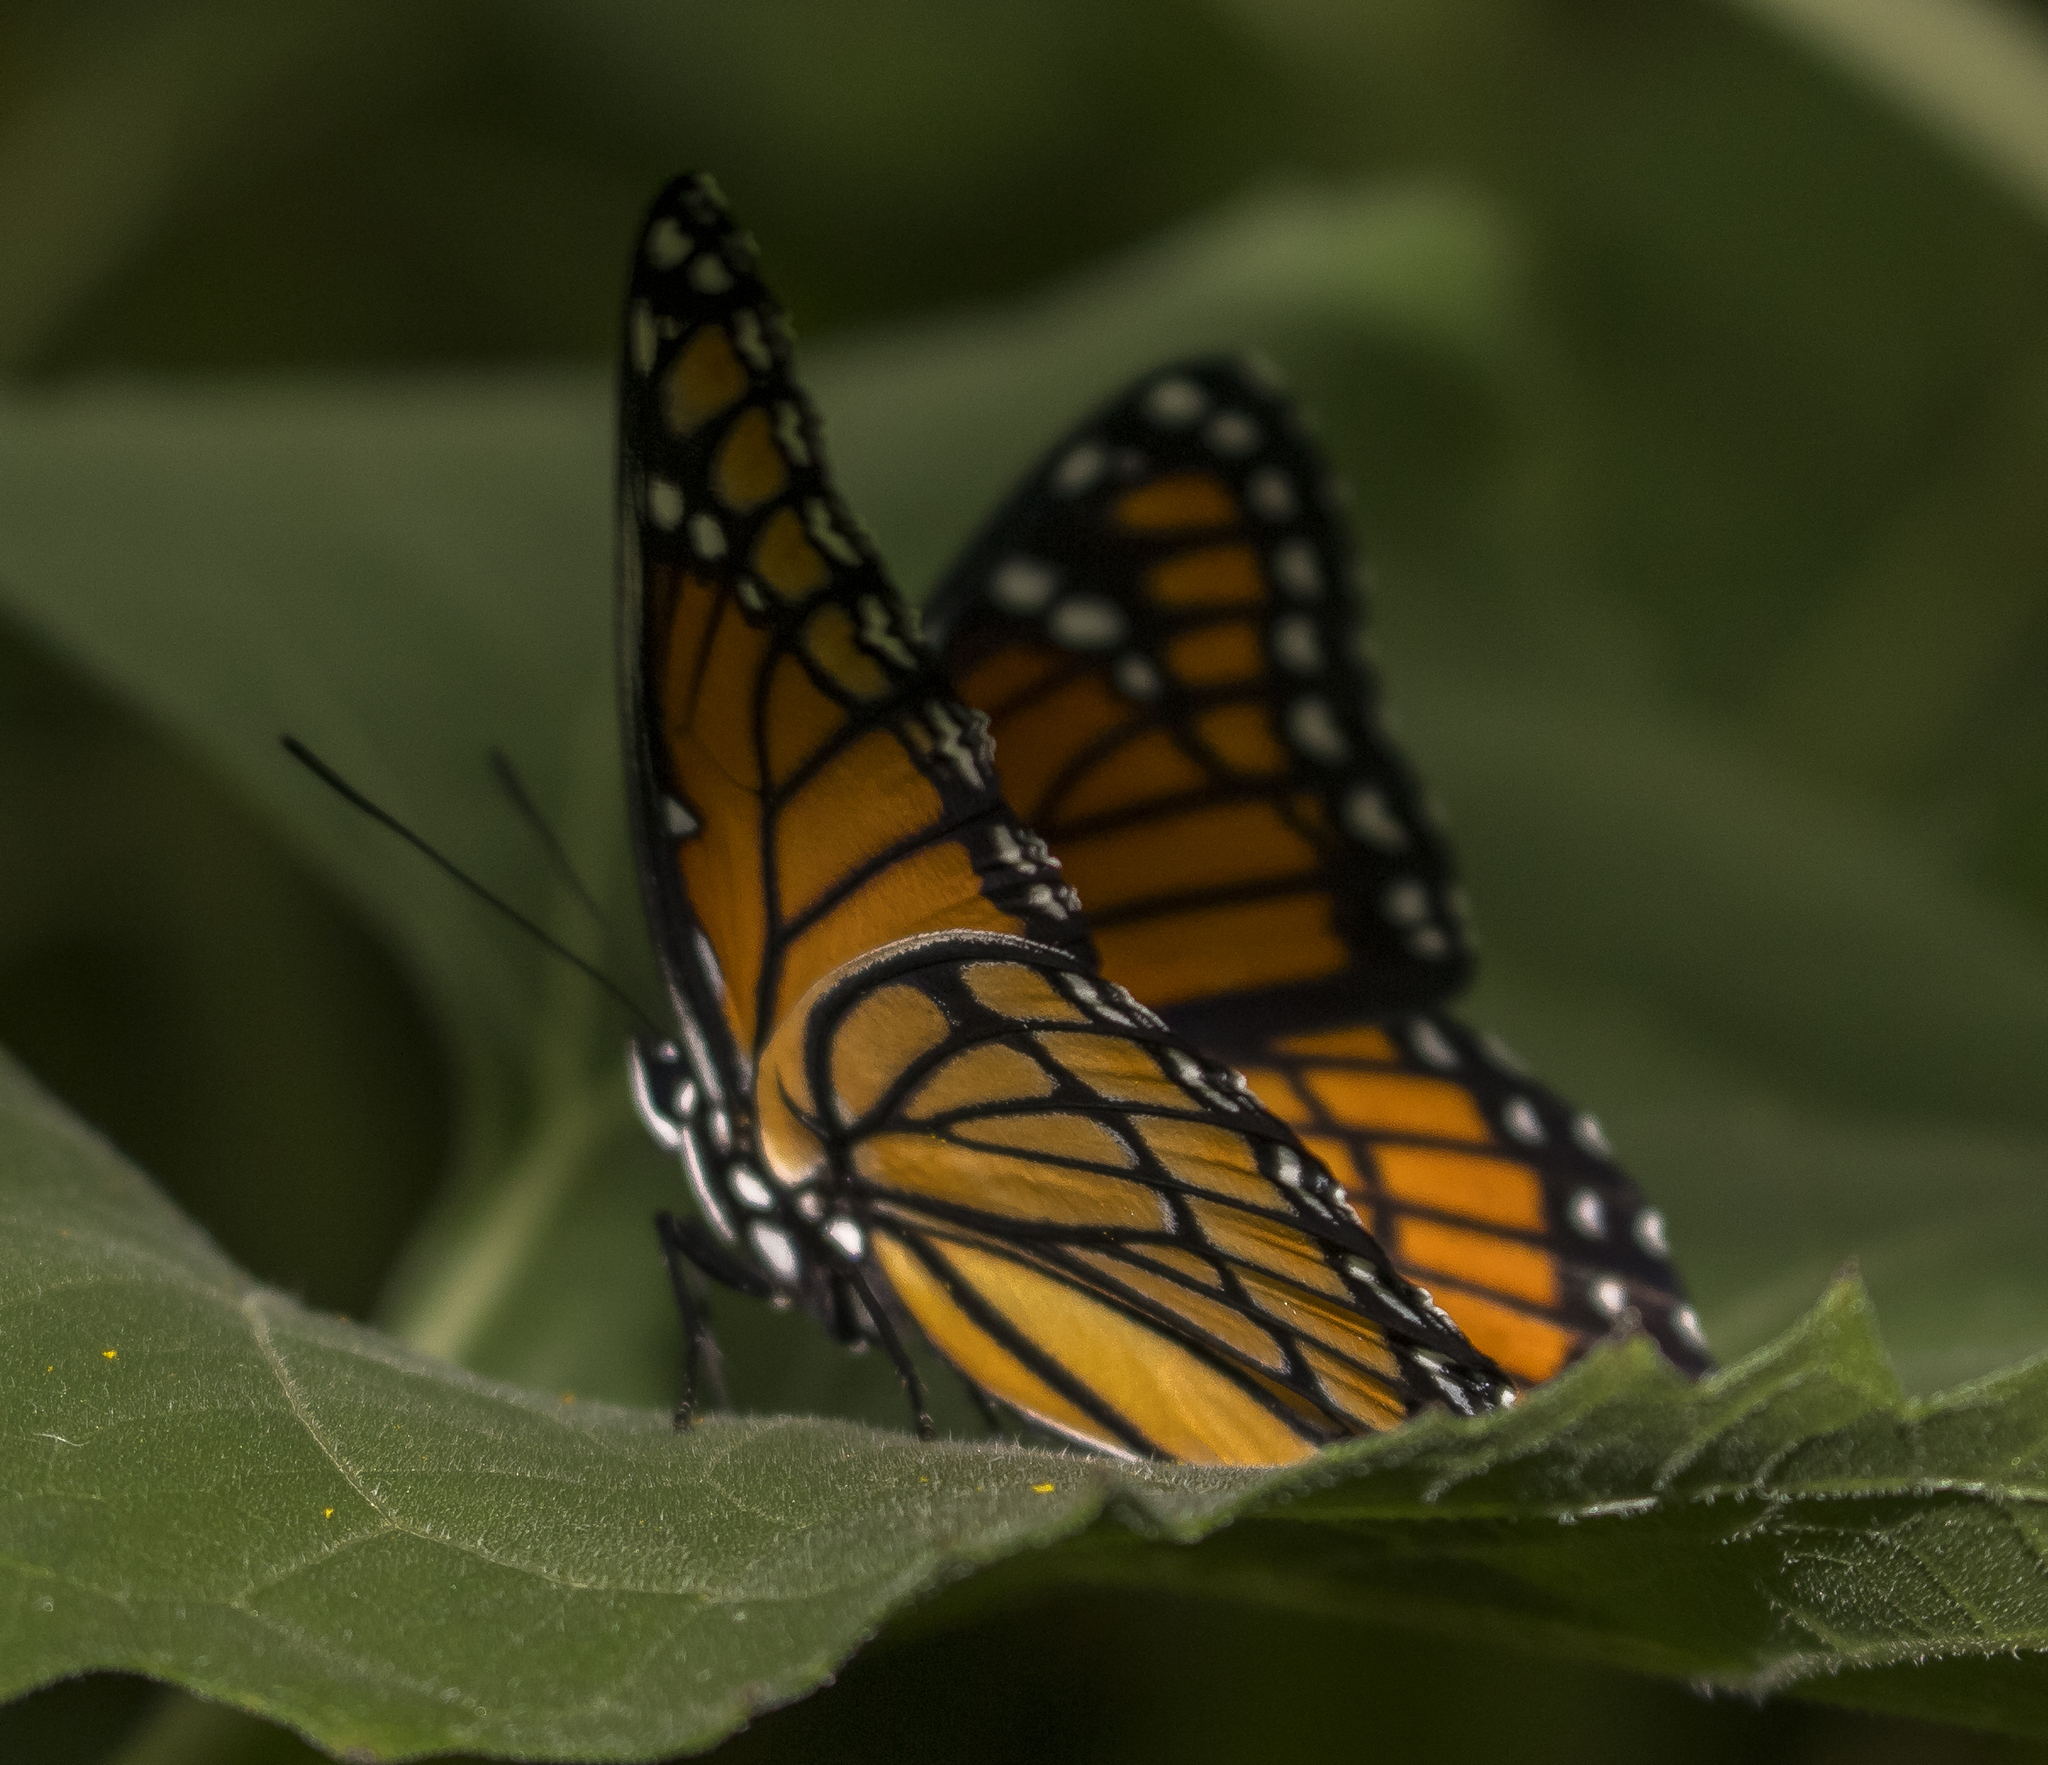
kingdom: Animalia
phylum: Arthropoda
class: Insecta
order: Lepidoptera
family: Nymphalidae
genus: Limenitis
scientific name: Limenitis archippus
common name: Viceroy
